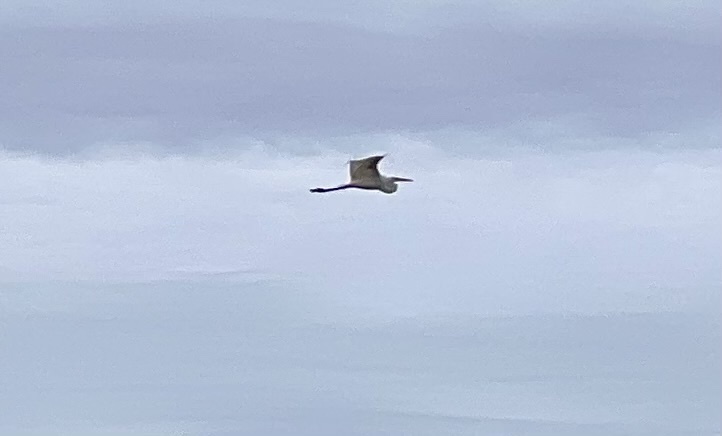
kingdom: Animalia
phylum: Chordata
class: Aves
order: Pelecaniformes
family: Ardeidae
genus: Ardea
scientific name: Ardea alba
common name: Great egret
